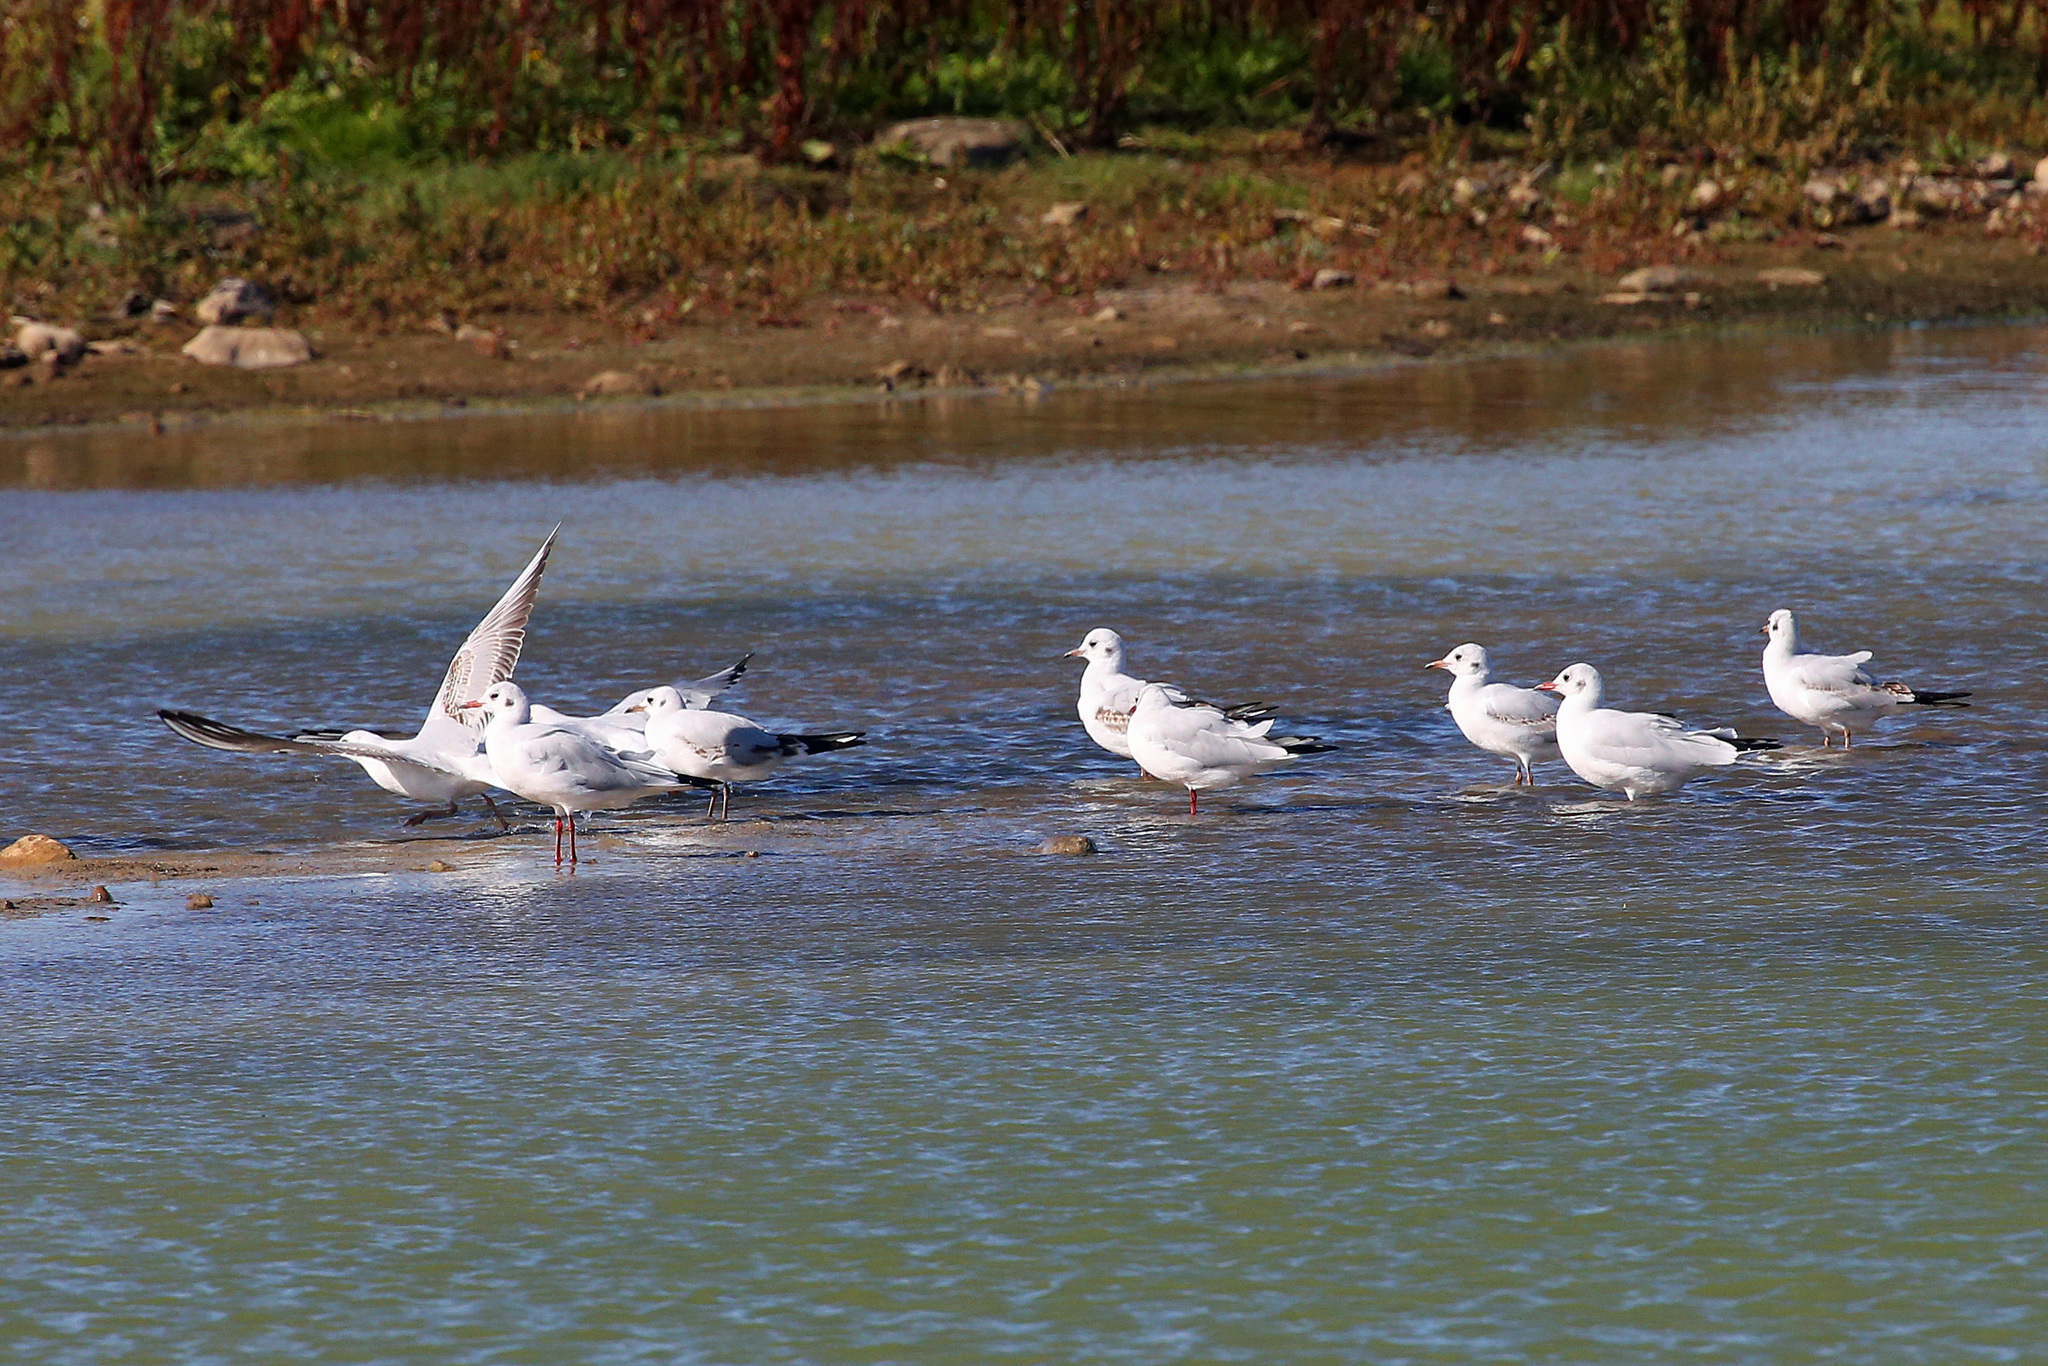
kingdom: Animalia
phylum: Chordata
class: Aves
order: Charadriiformes
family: Laridae
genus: Chroicocephalus
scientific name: Chroicocephalus ridibundus
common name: Black-headed gull
